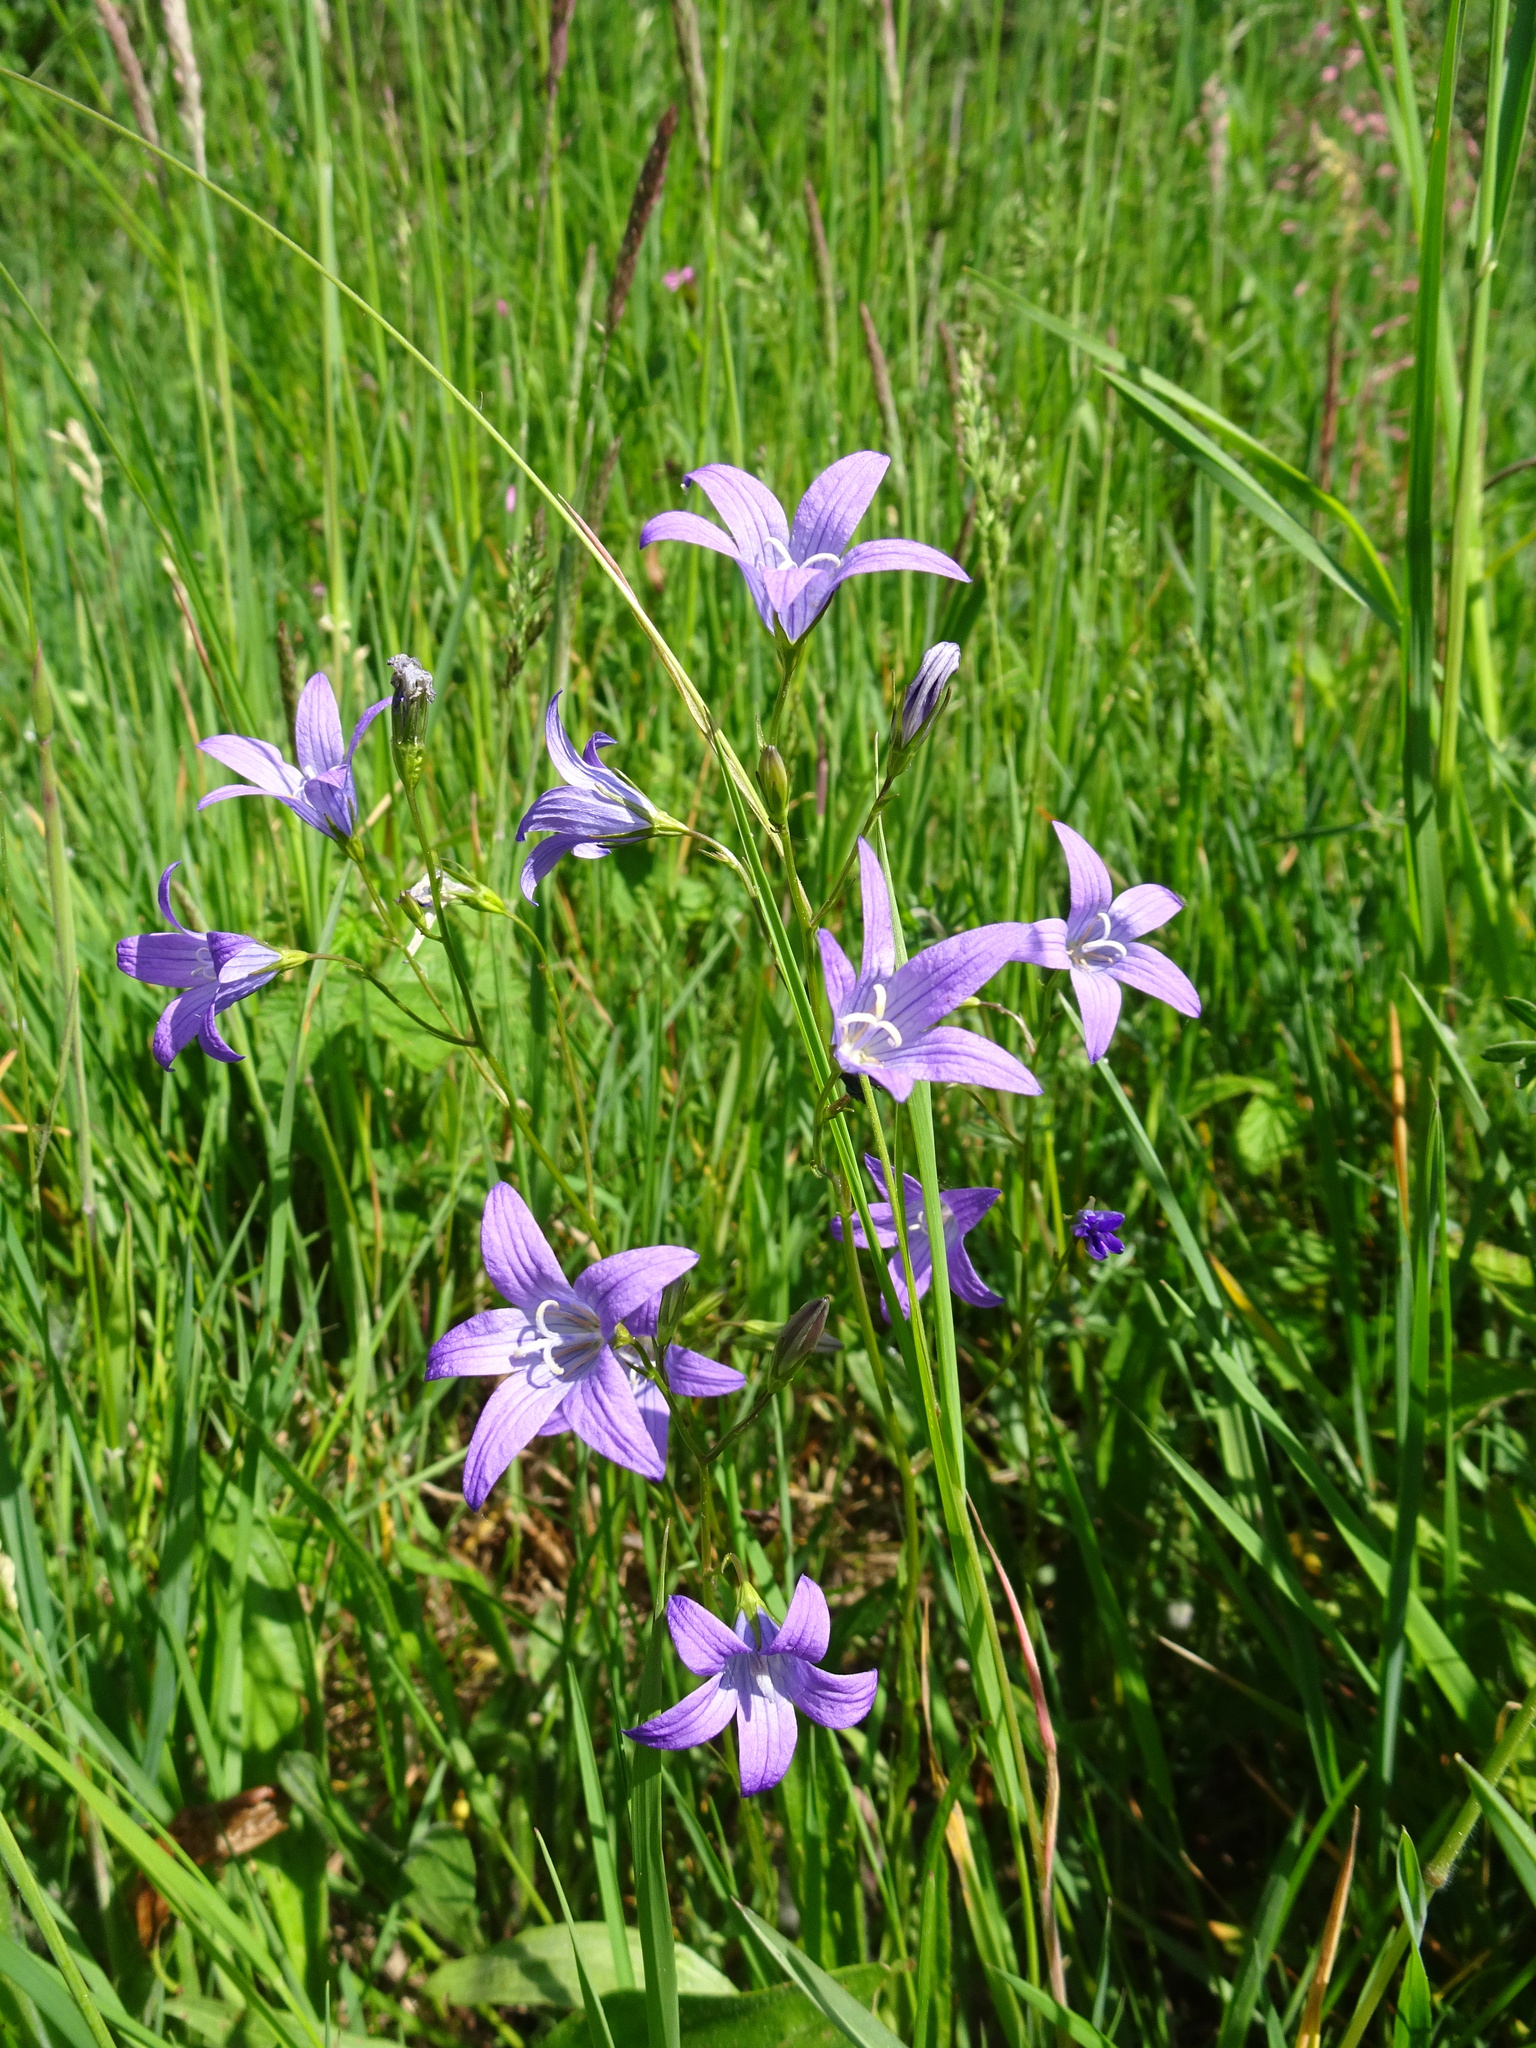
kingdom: Plantae
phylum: Tracheophyta
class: Magnoliopsida
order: Asterales
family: Campanulaceae
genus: Campanula
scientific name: Campanula patula
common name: Spreading bellflower
